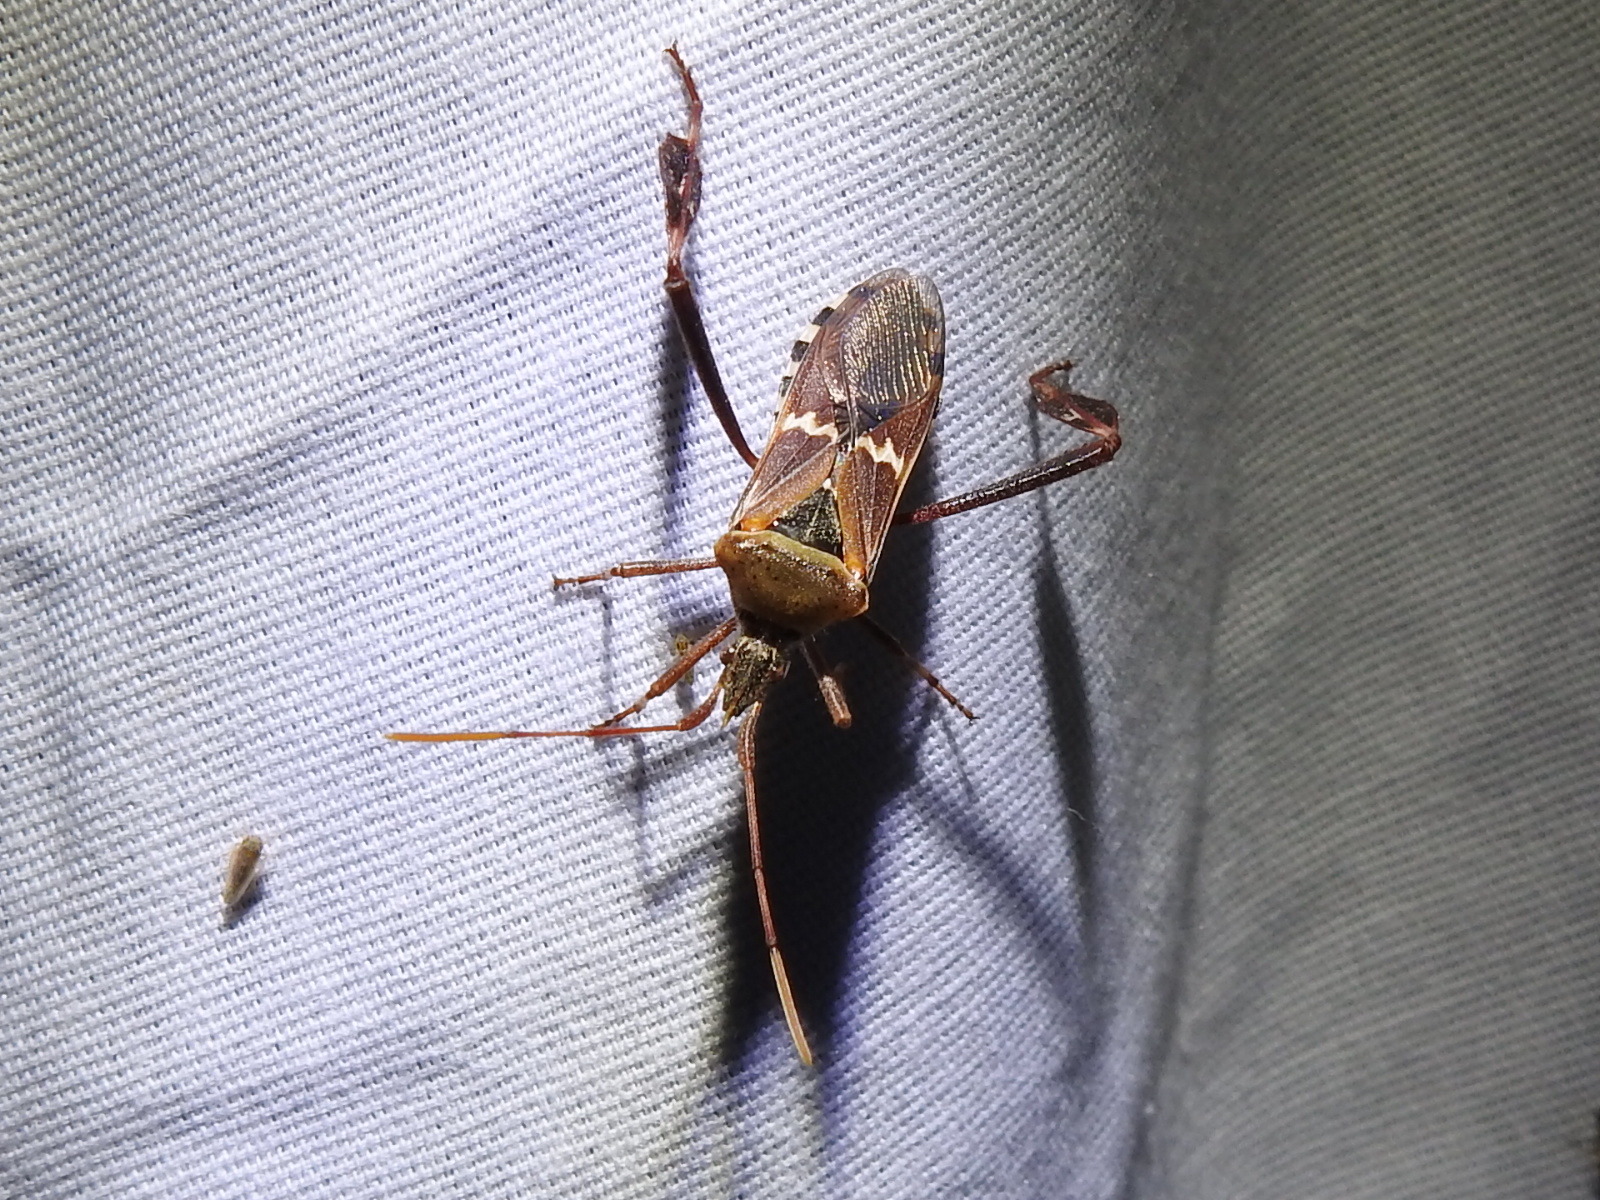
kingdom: Animalia
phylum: Arthropoda
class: Insecta
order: Hemiptera
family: Coreidae
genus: Leptoglossus
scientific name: Leptoglossus clypealis
